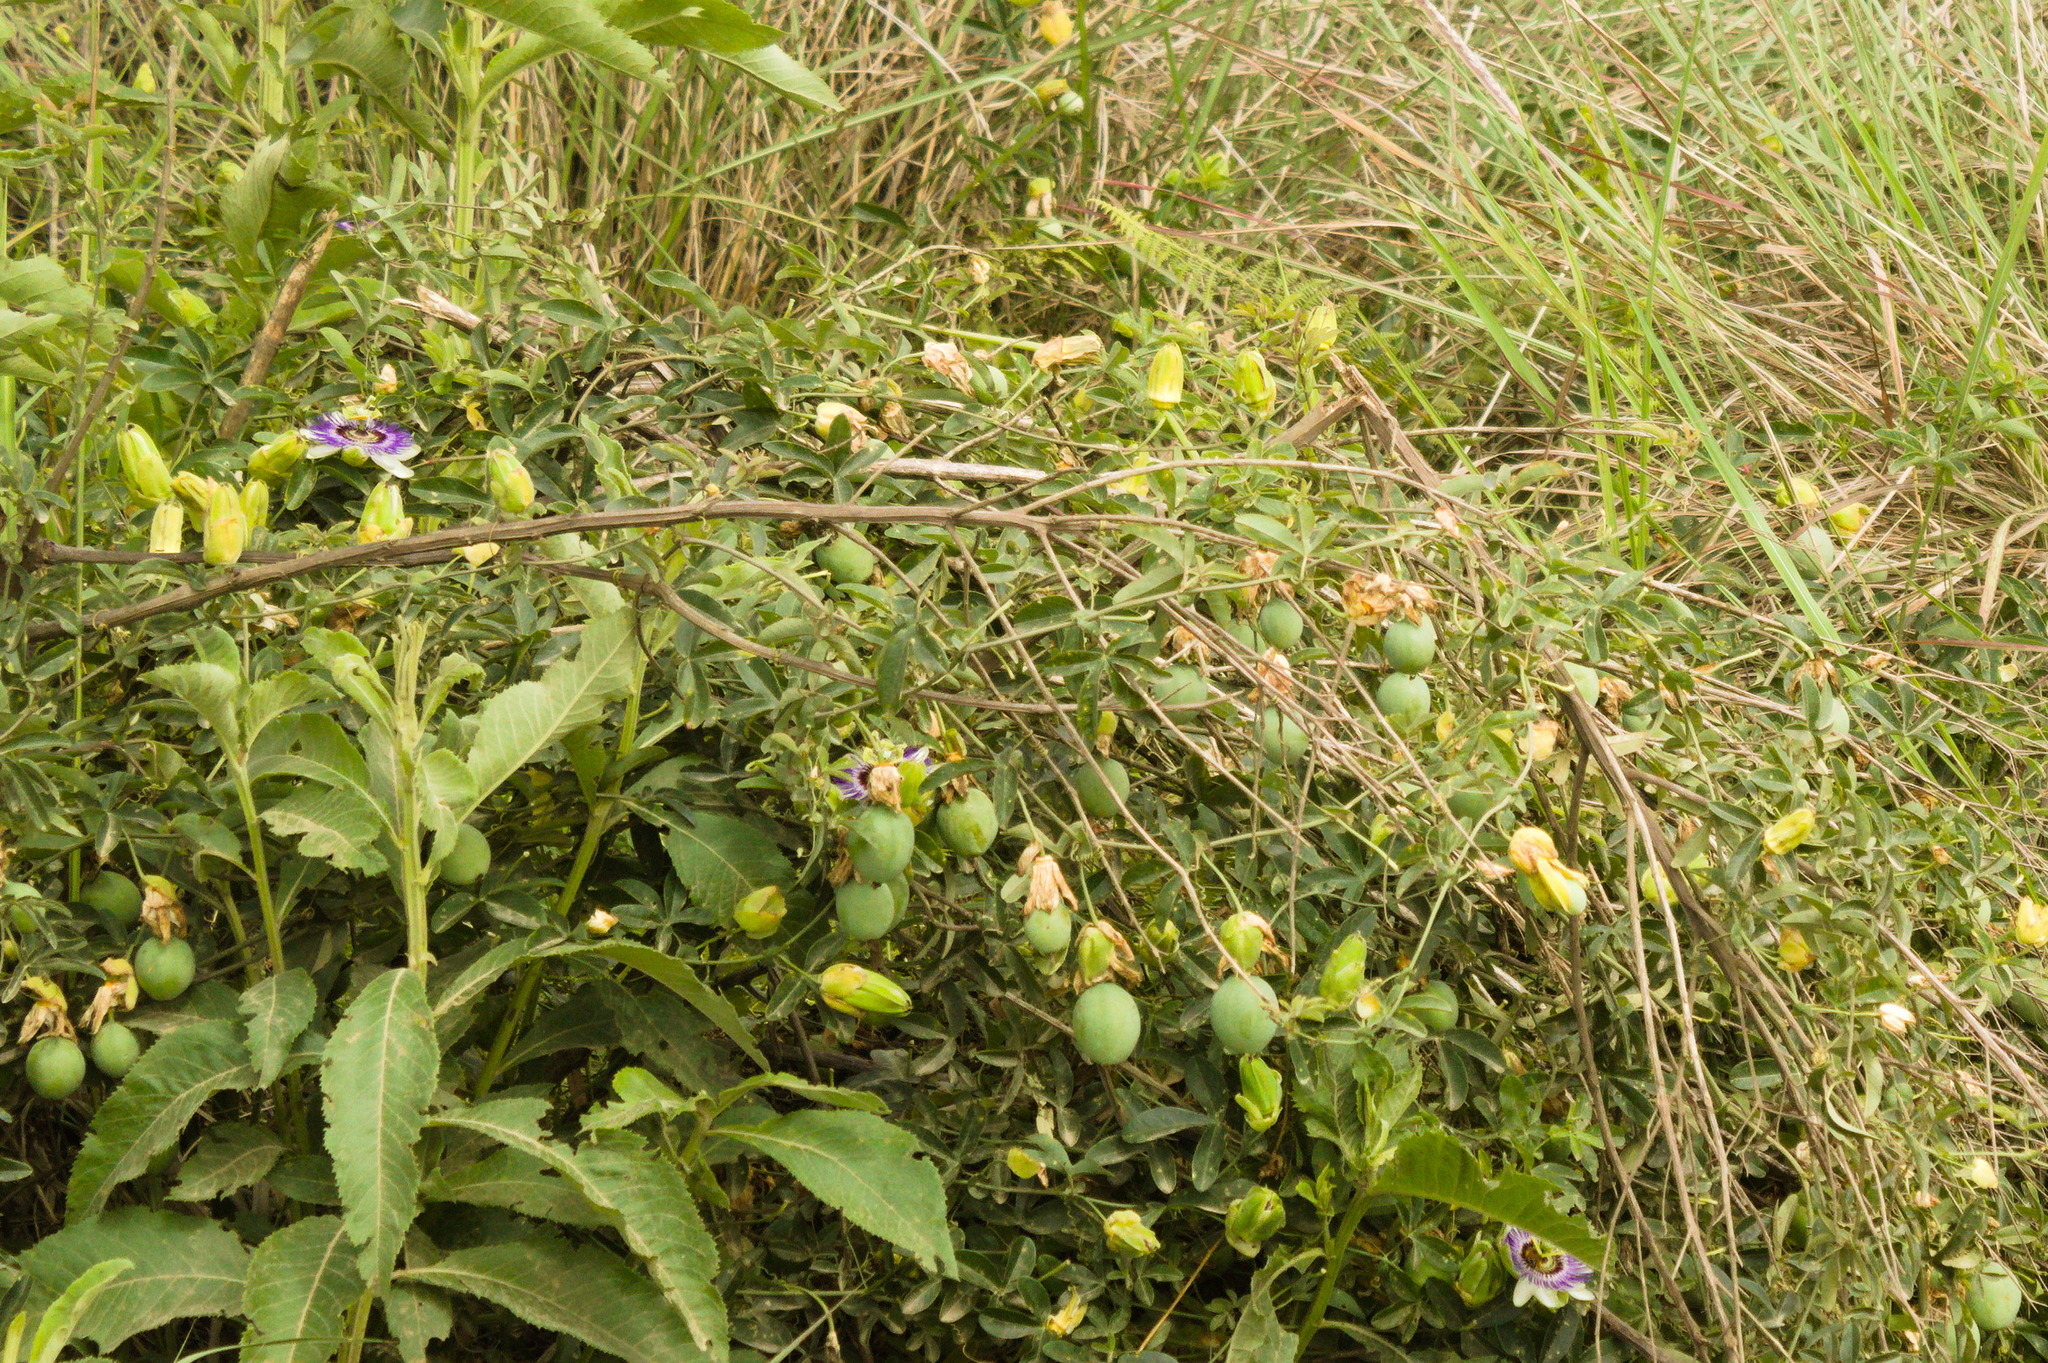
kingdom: Plantae
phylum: Tracheophyta
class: Magnoliopsida
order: Malpighiales
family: Passifloraceae
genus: Passiflora
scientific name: Passiflora caerulea
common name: Blue passionflower
